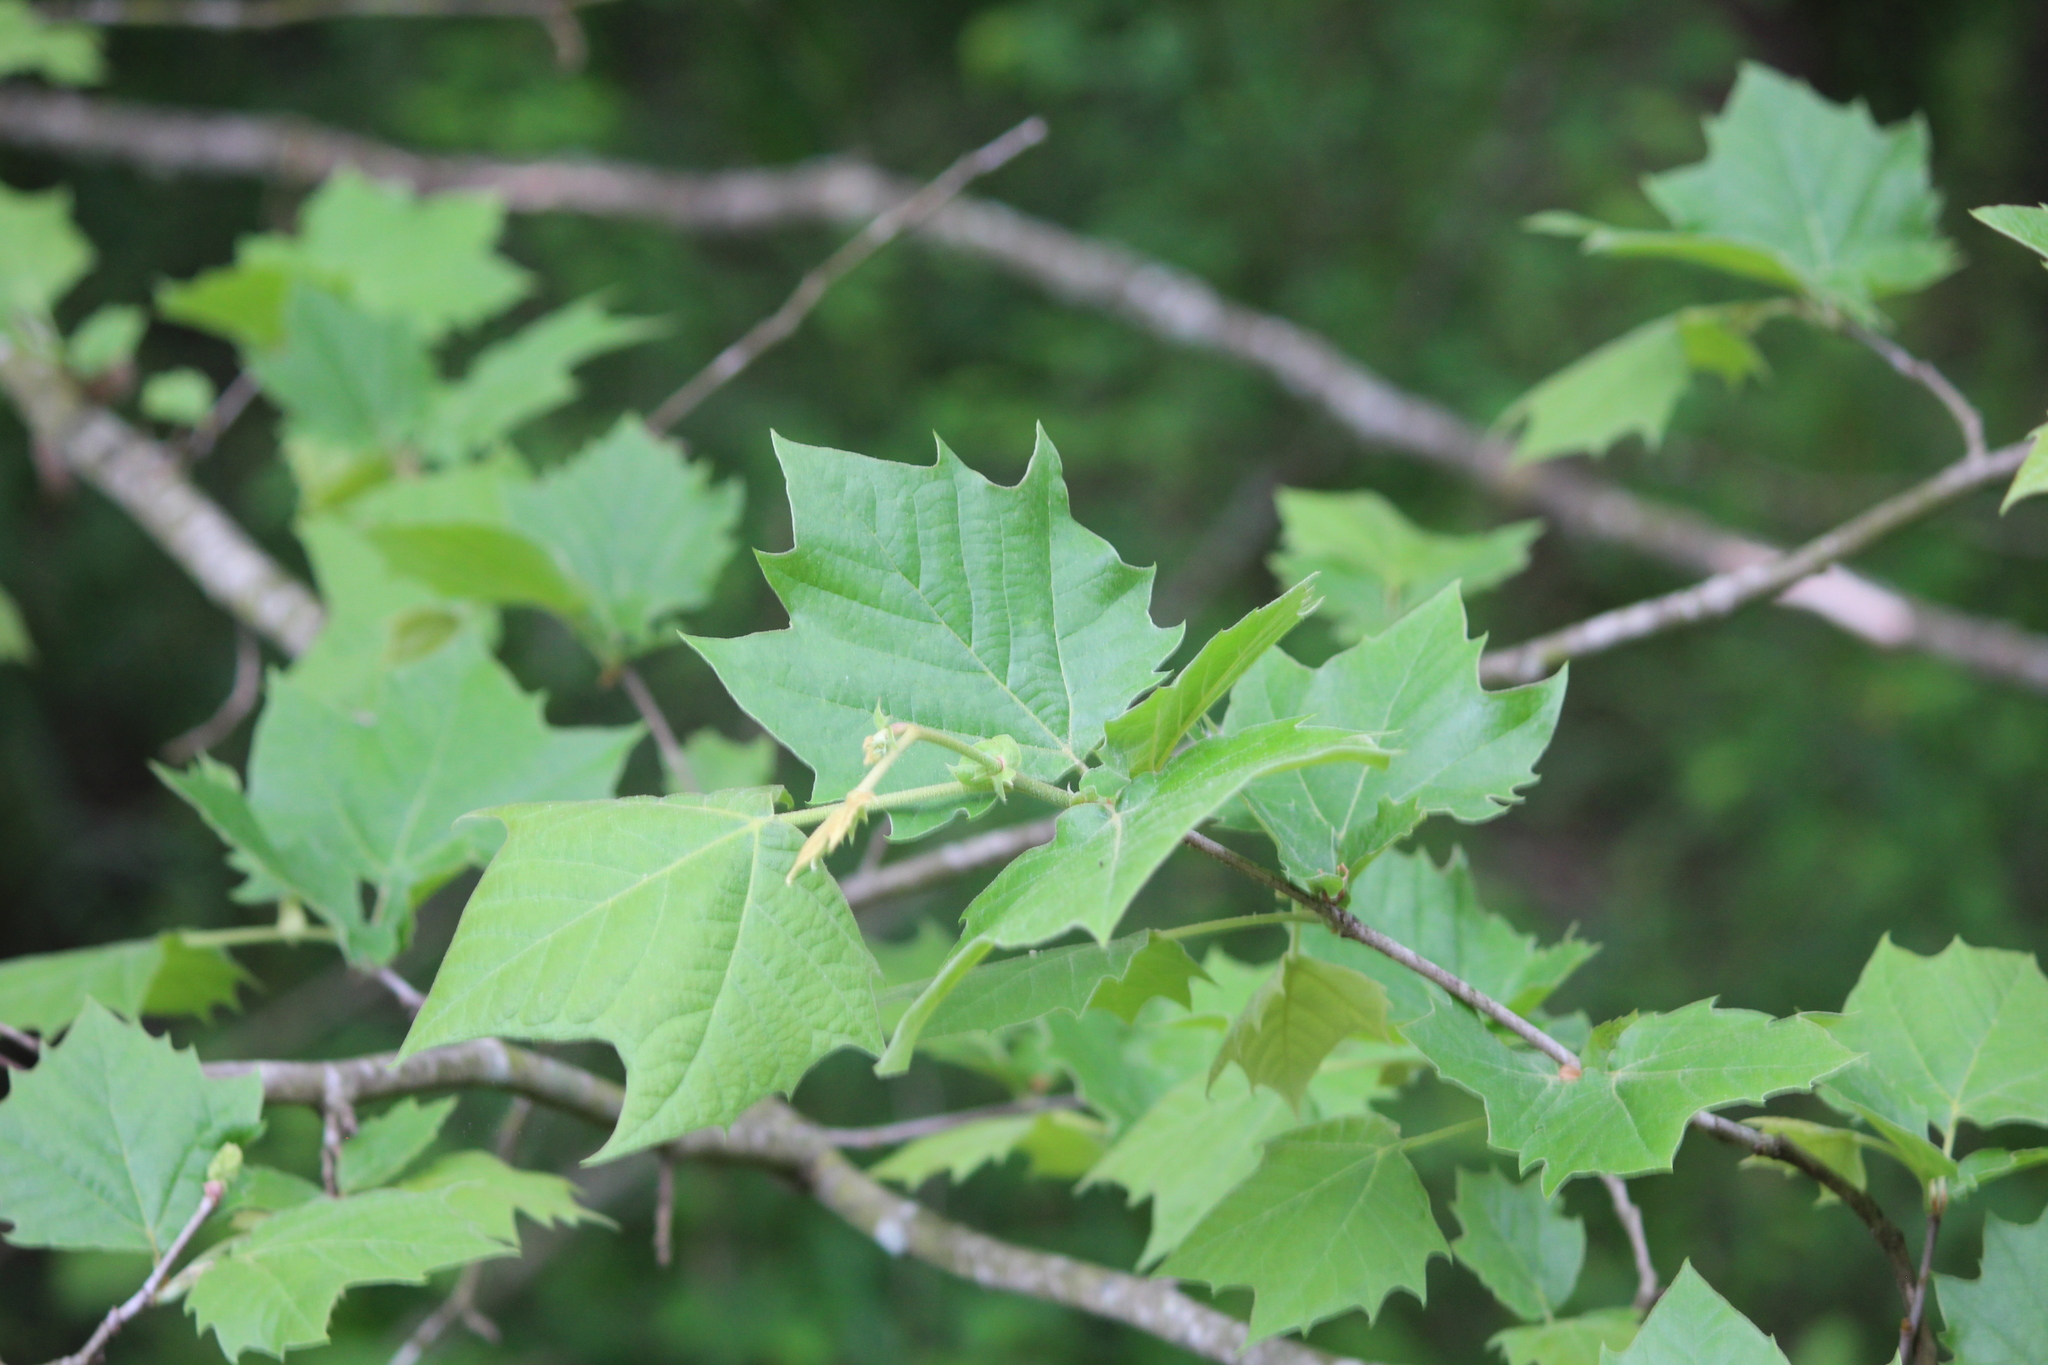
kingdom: Plantae
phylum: Tracheophyta
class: Magnoliopsida
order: Proteales
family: Platanaceae
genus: Platanus
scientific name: Platanus occidentalis
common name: American sycamore
